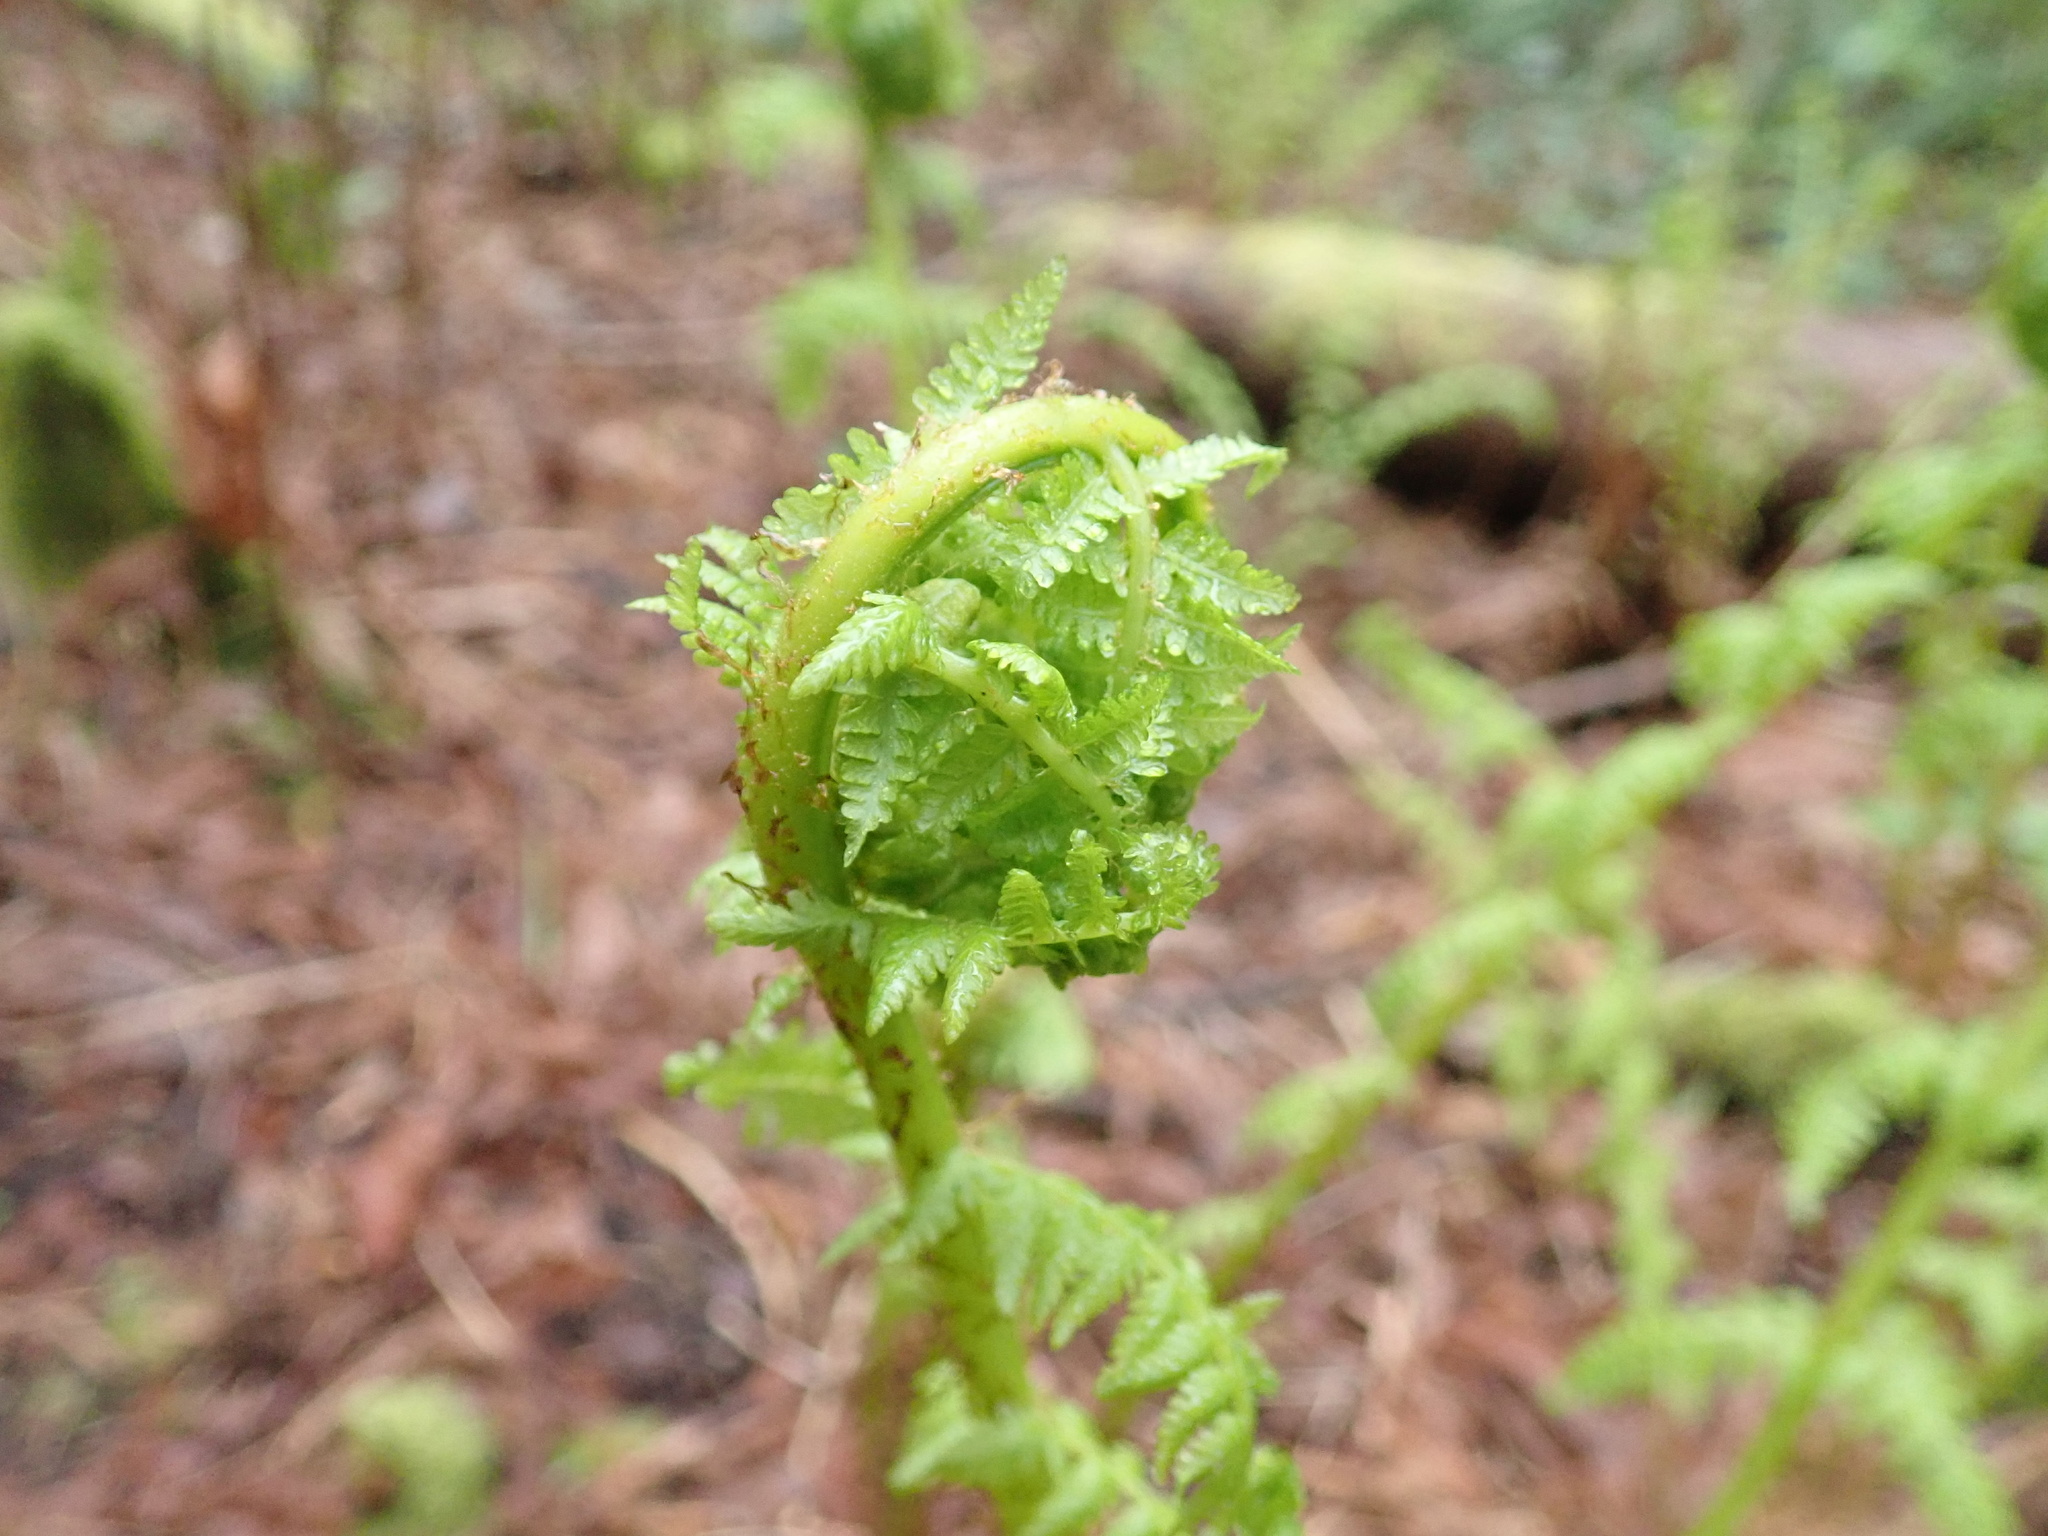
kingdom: Plantae
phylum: Tracheophyta
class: Polypodiopsida
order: Polypodiales
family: Athyriaceae
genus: Athyrium
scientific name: Athyrium filix-femina
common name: Lady fern
